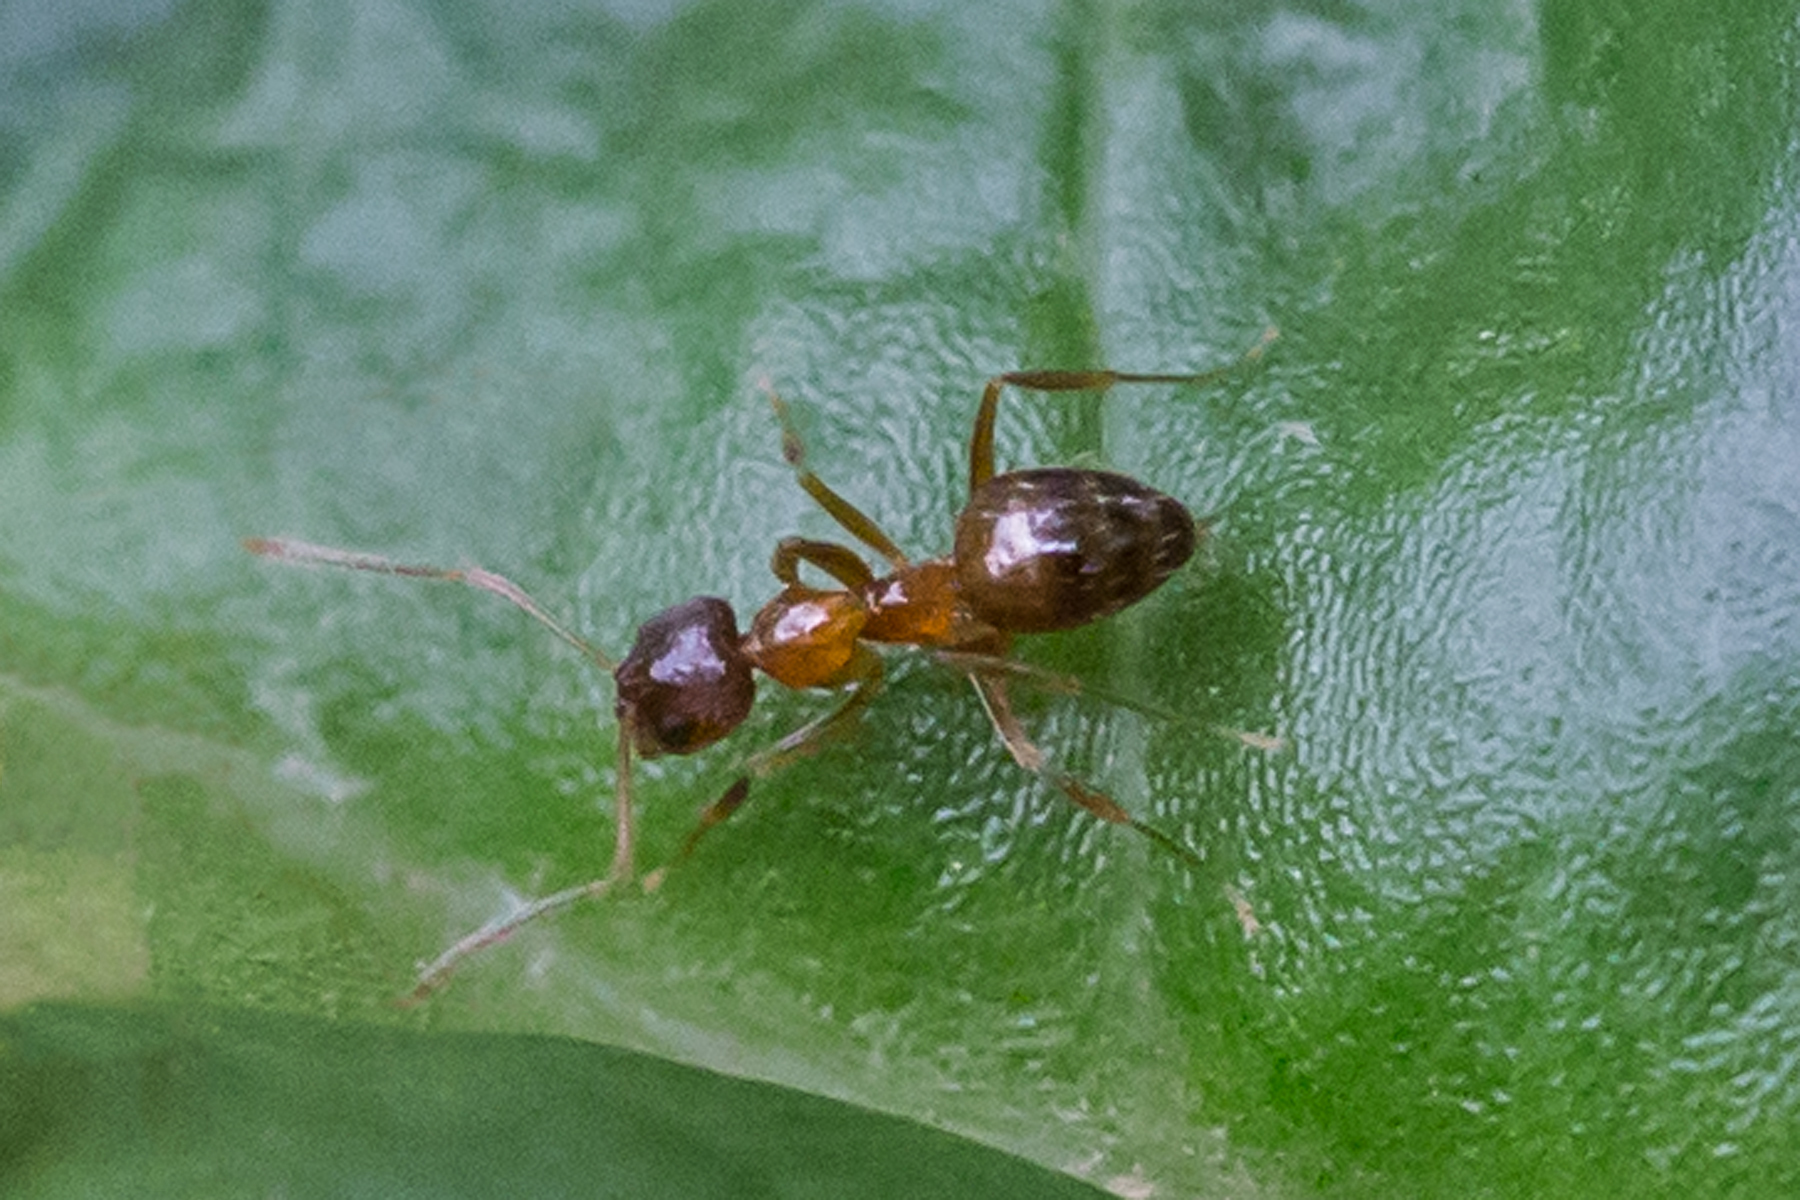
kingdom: Animalia
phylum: Arthropoda
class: Insecta
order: Hymenoptera
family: Formicidae
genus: Paratrechina
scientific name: Paratrechina flavipes
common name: Eastern asian formicine ant
